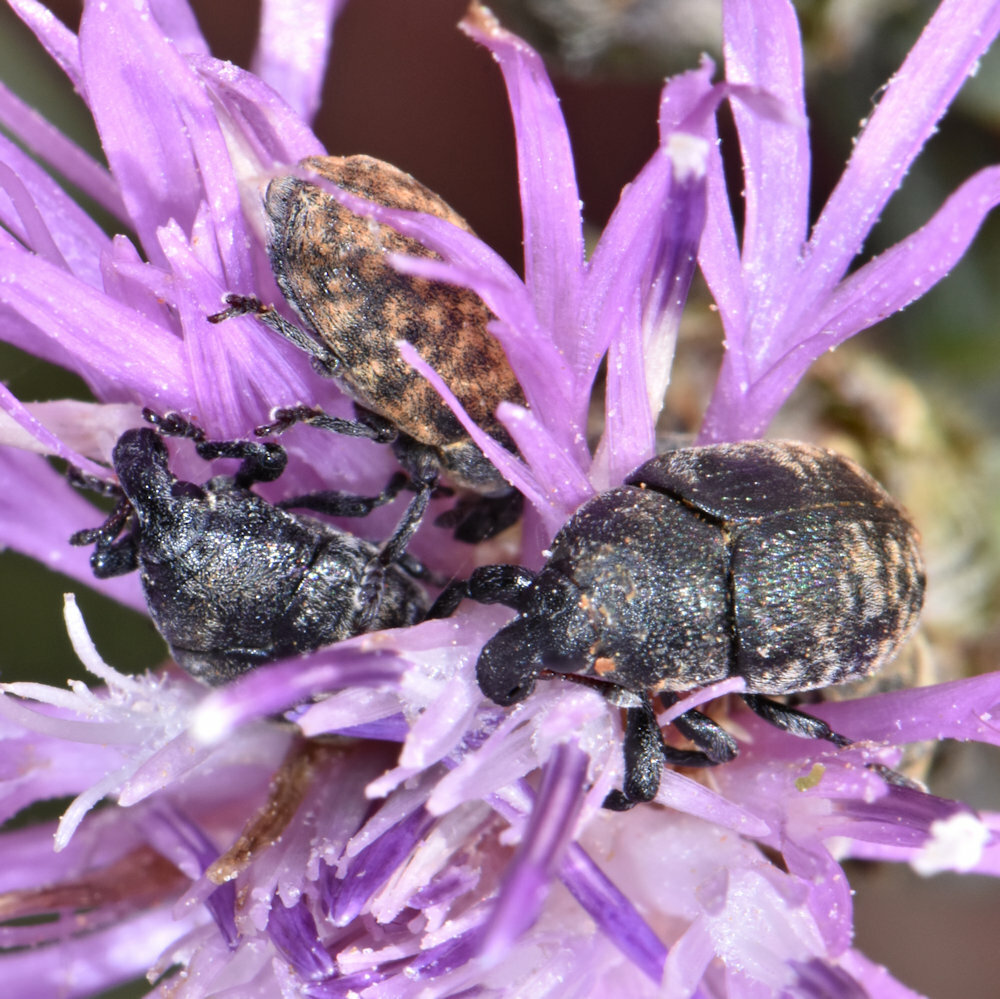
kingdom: Animalia
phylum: Arthropoda
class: Insecta
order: Coleoptera
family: Curculionidae
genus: Larinus
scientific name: Larinus obtusus
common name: Weevil
